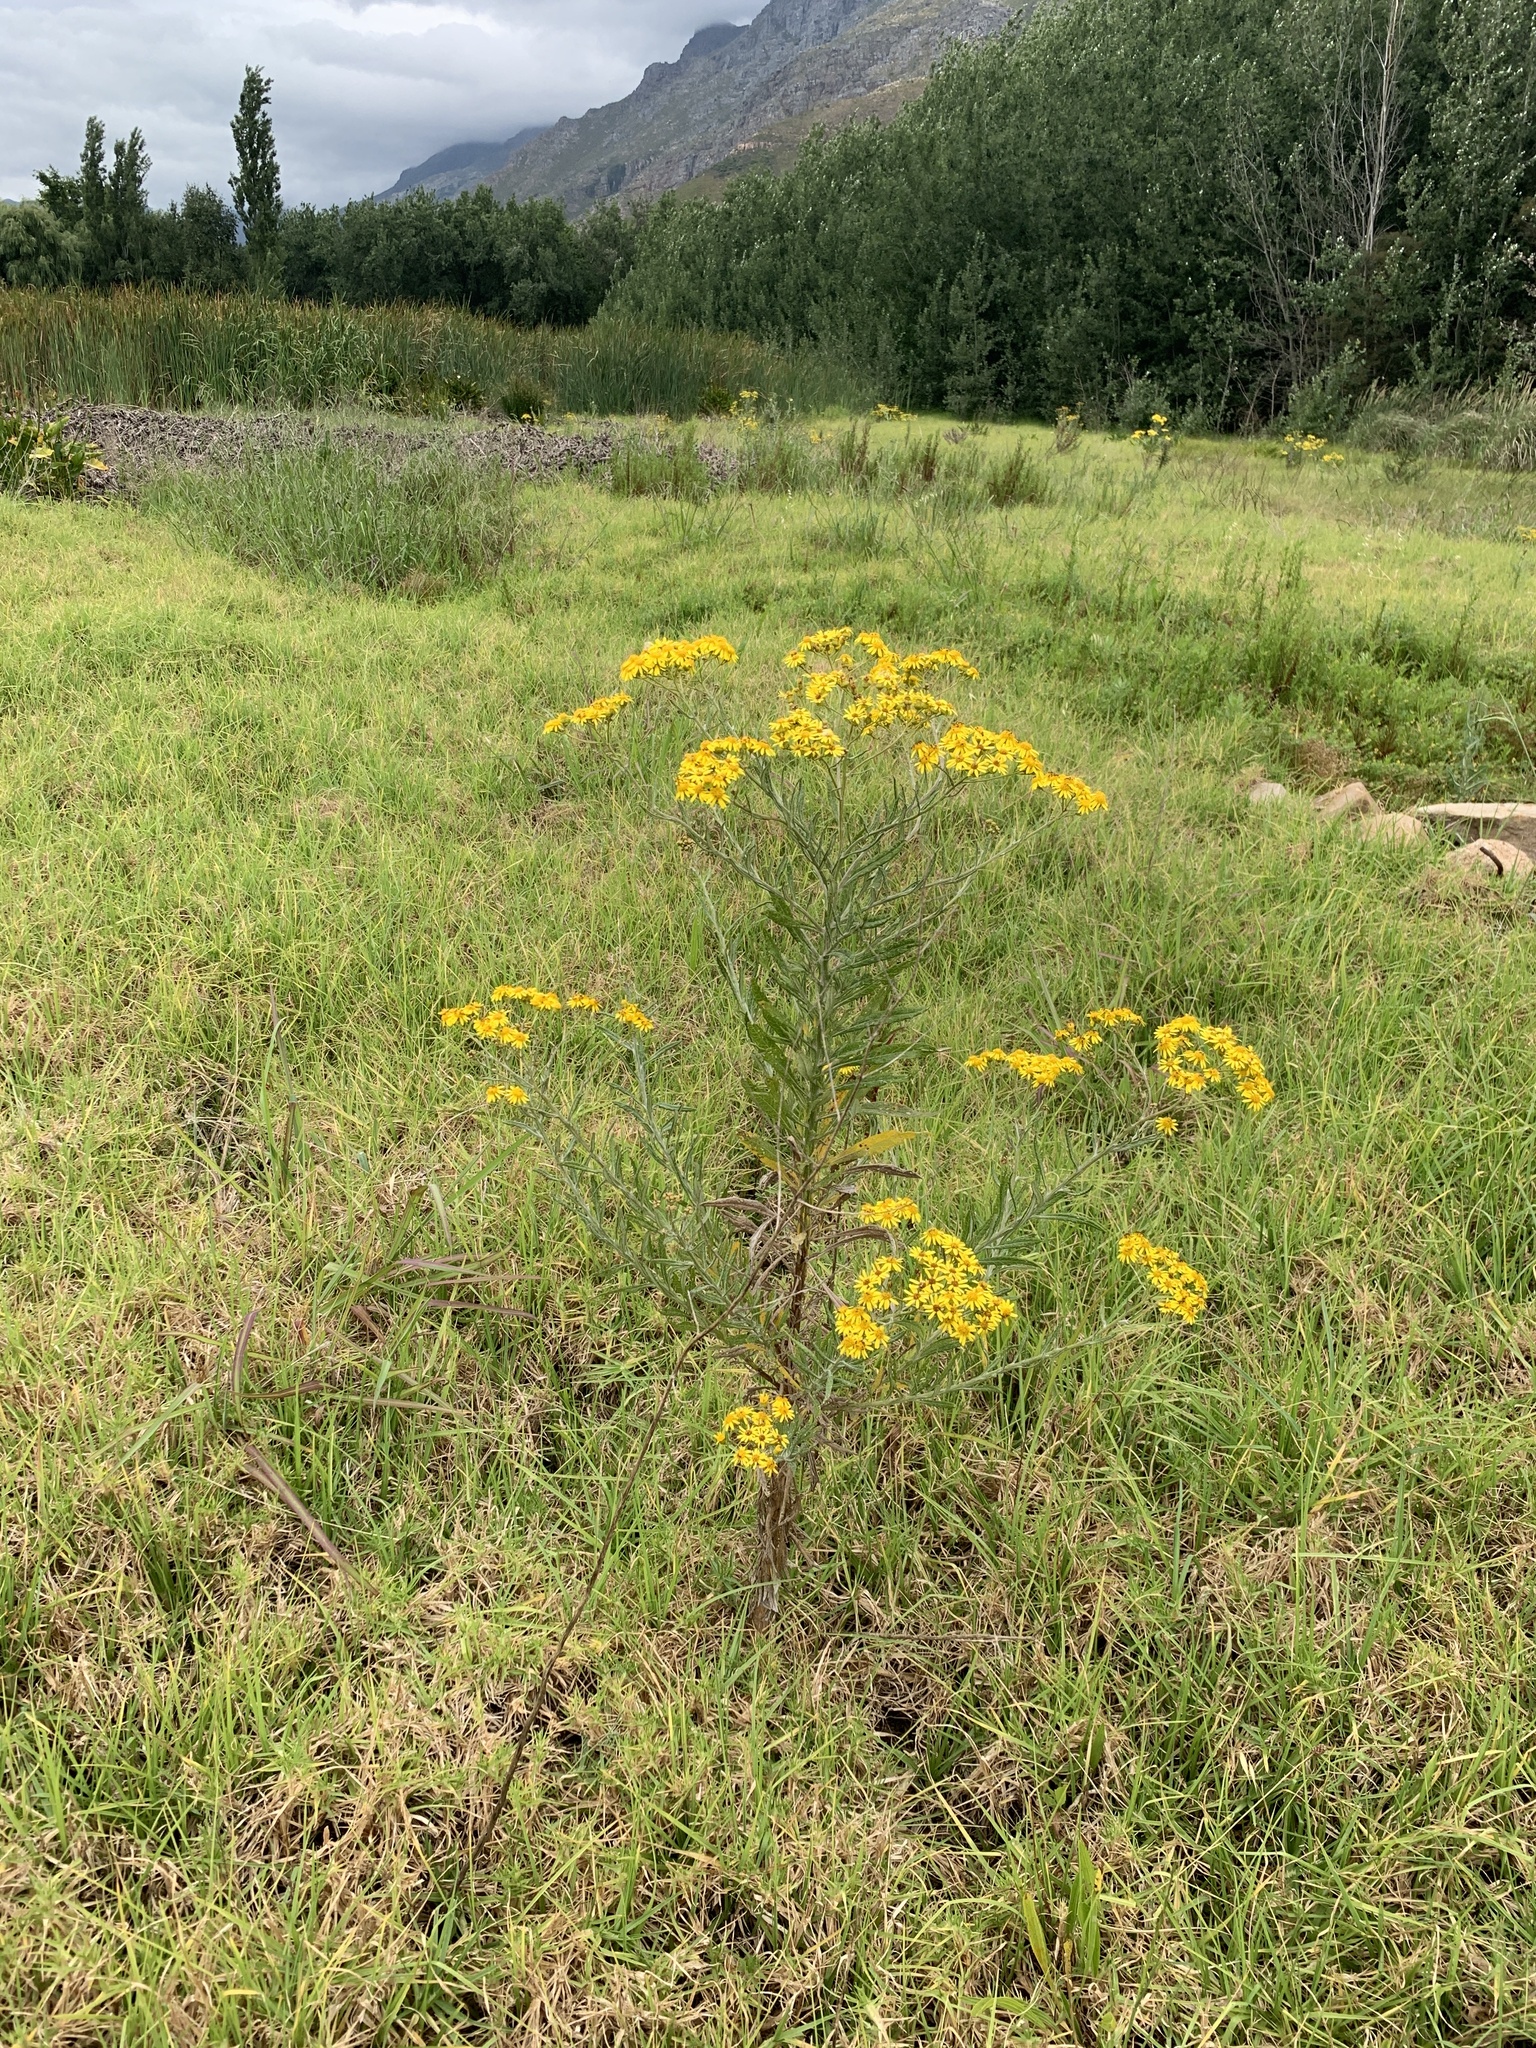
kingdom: Plantae
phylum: Tracheophyta
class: Magnoliopsida
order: Asterales
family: Asteraceae
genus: Senecio
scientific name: Senecio pterophorus
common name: Shoddy ragwort
